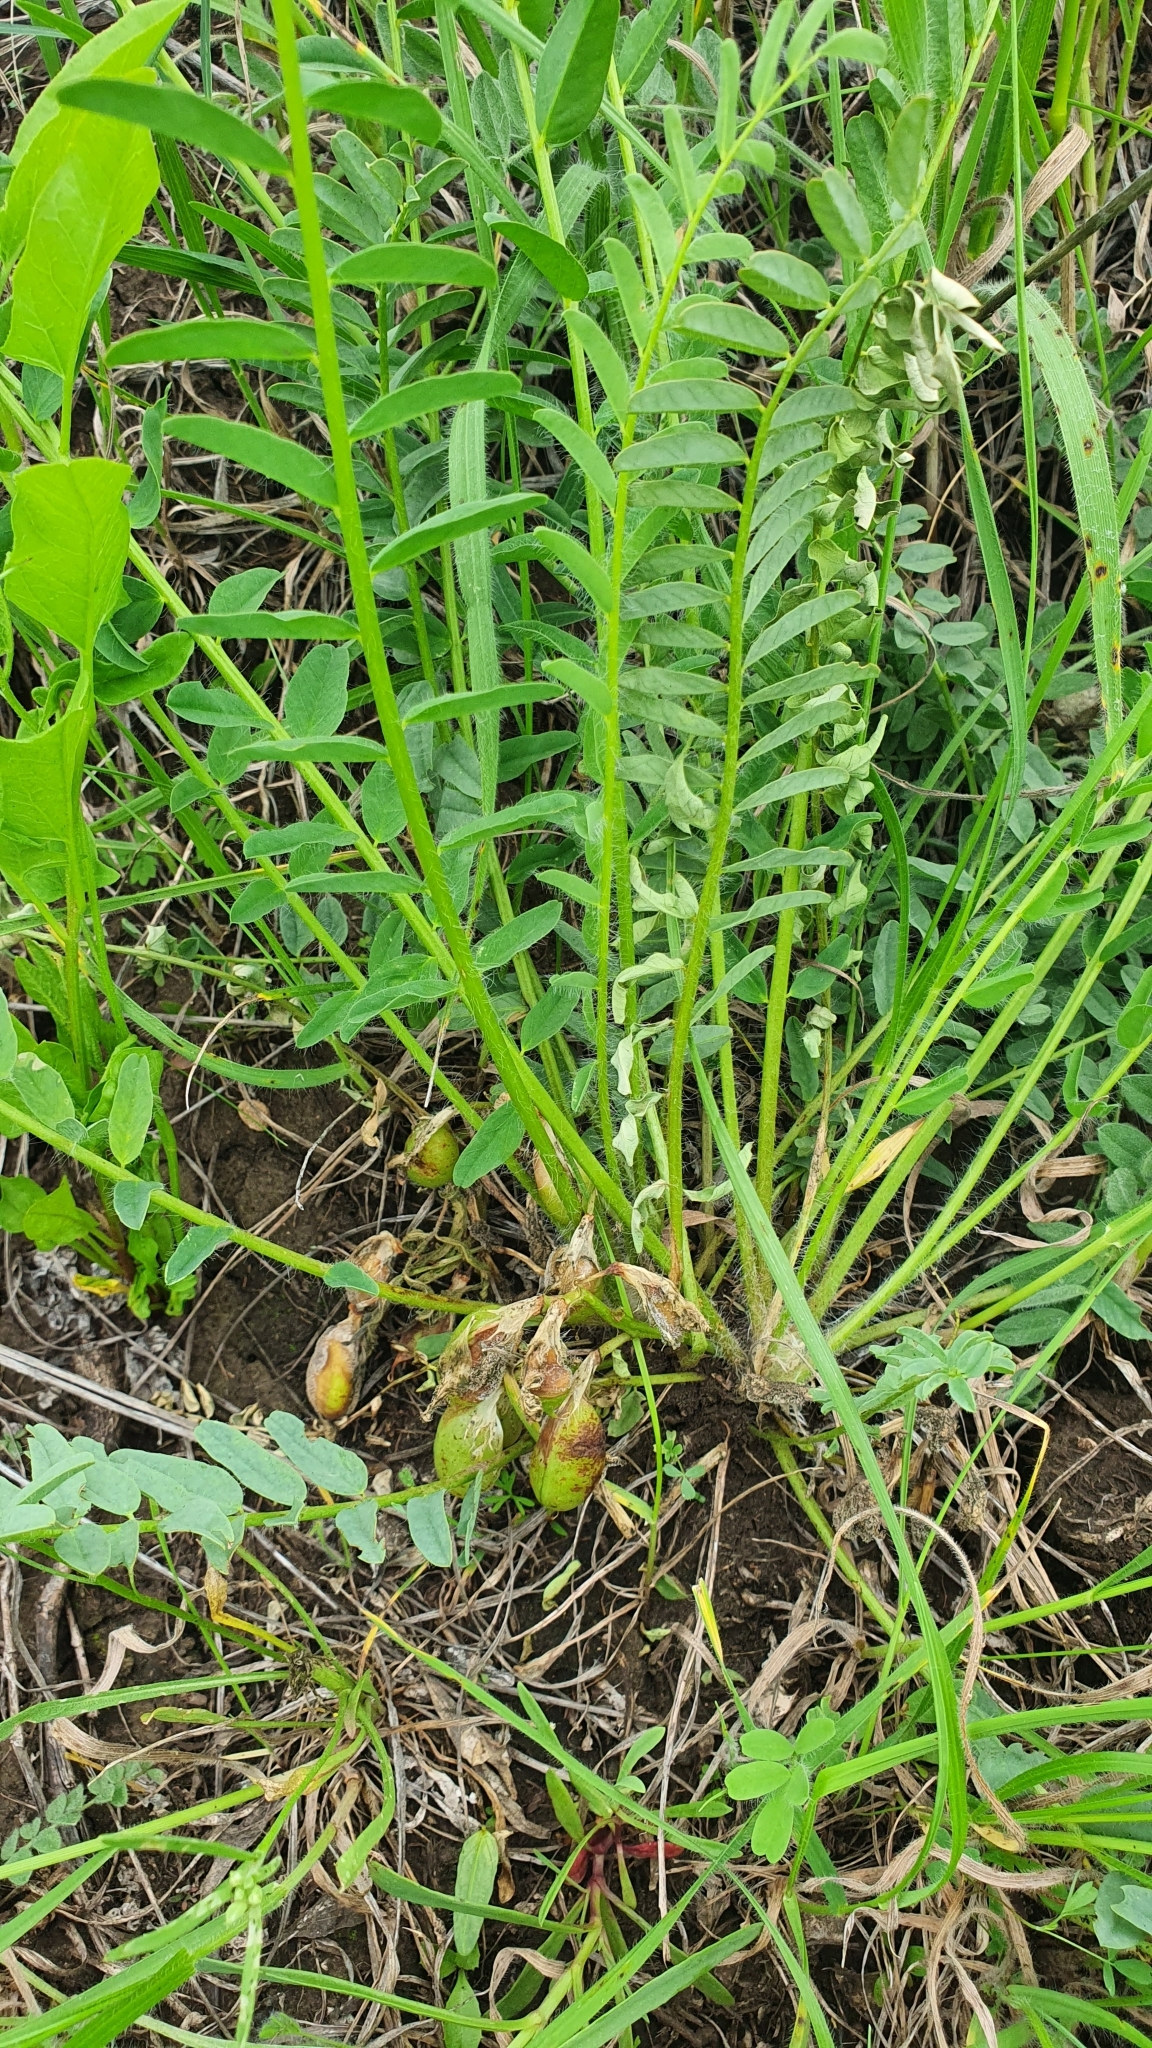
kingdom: Plantae
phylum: Tracheophyta
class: Magnoliopsida
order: Fabales
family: Fabaceae
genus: Astragalus
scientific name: Astragalus wolgensis
